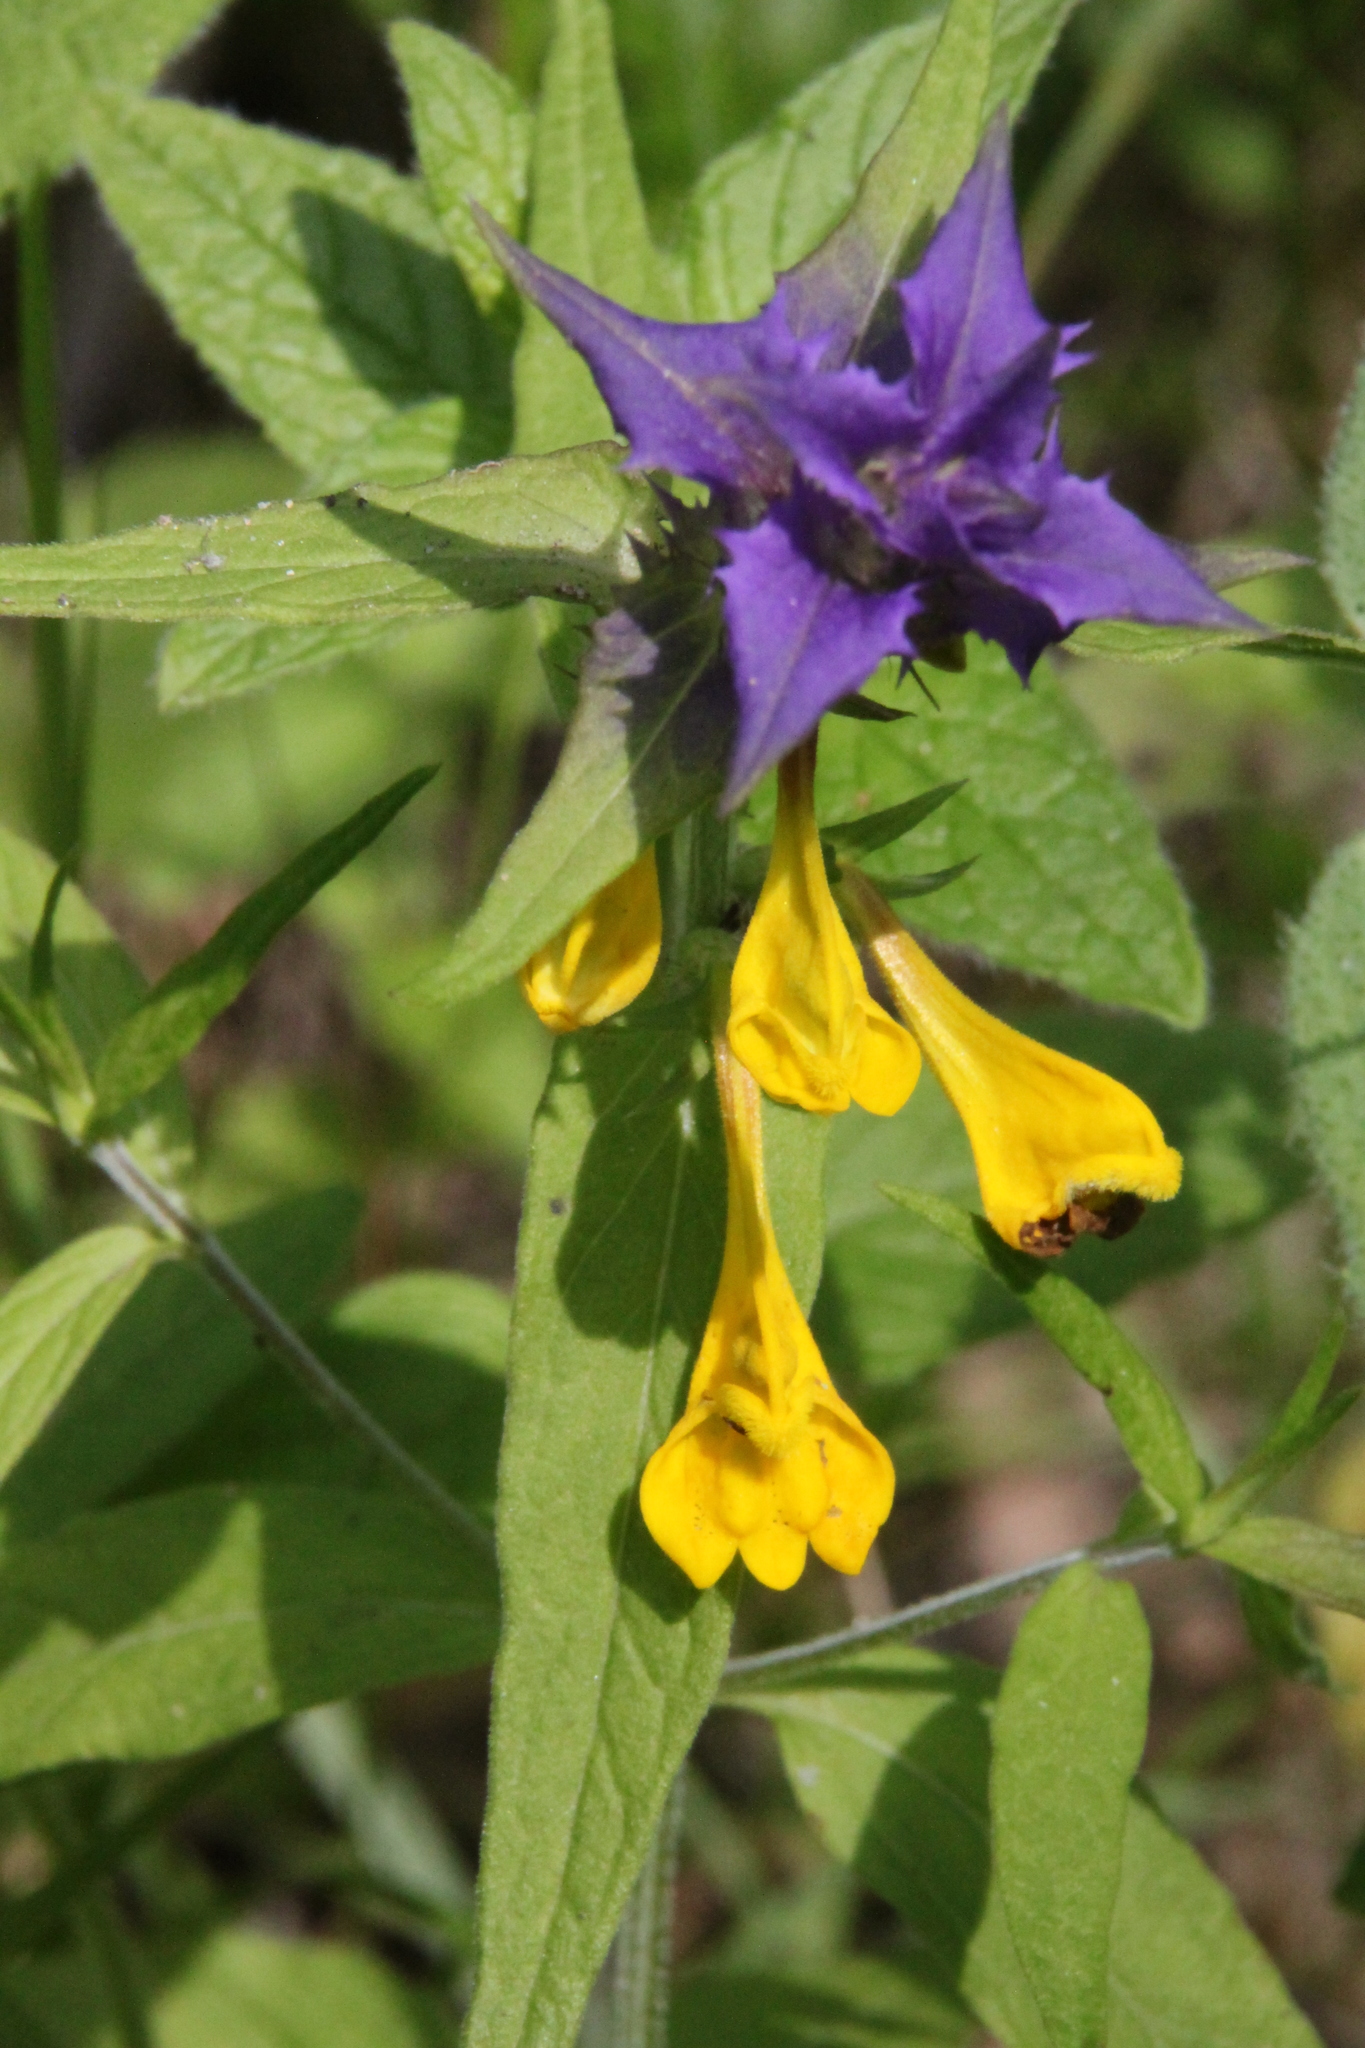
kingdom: Plantae
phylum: Tracheophyta
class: Magnoliopsida
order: Lamiales
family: Orobanchaceae
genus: Melampyrum
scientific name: Melampyrum nemorosum
